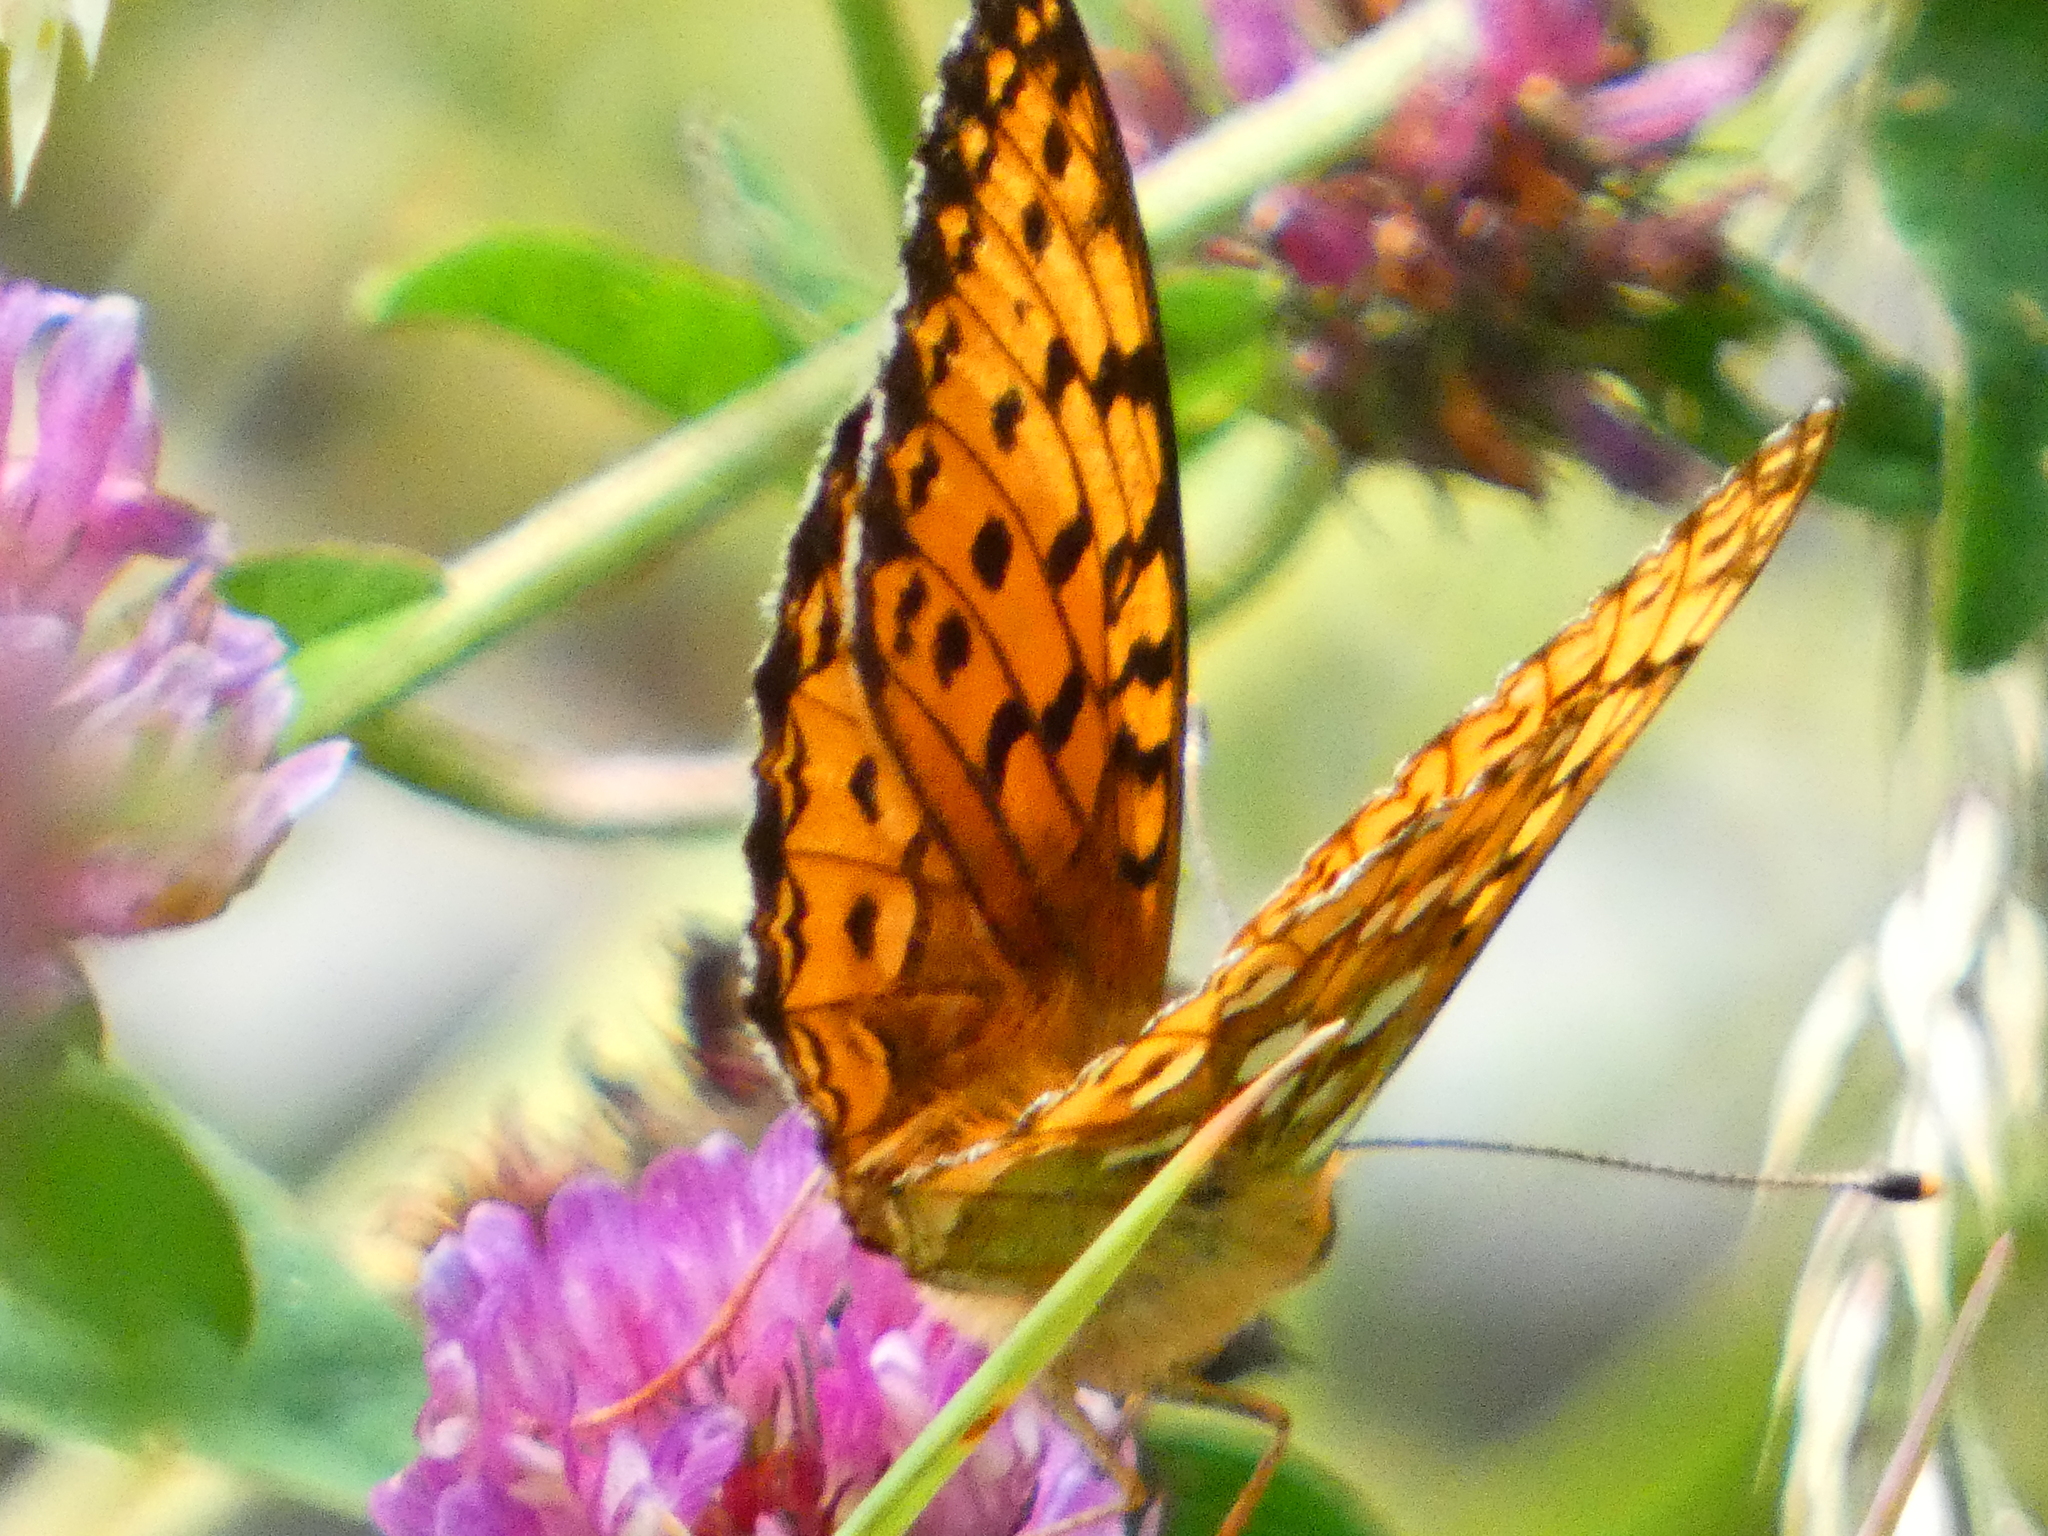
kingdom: Animalia
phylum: Arthropoda
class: Insecta
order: Lepidoptera
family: Nymphalidae
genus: Speyeria
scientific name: Speyeria aglaja
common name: Dark green fritillary
